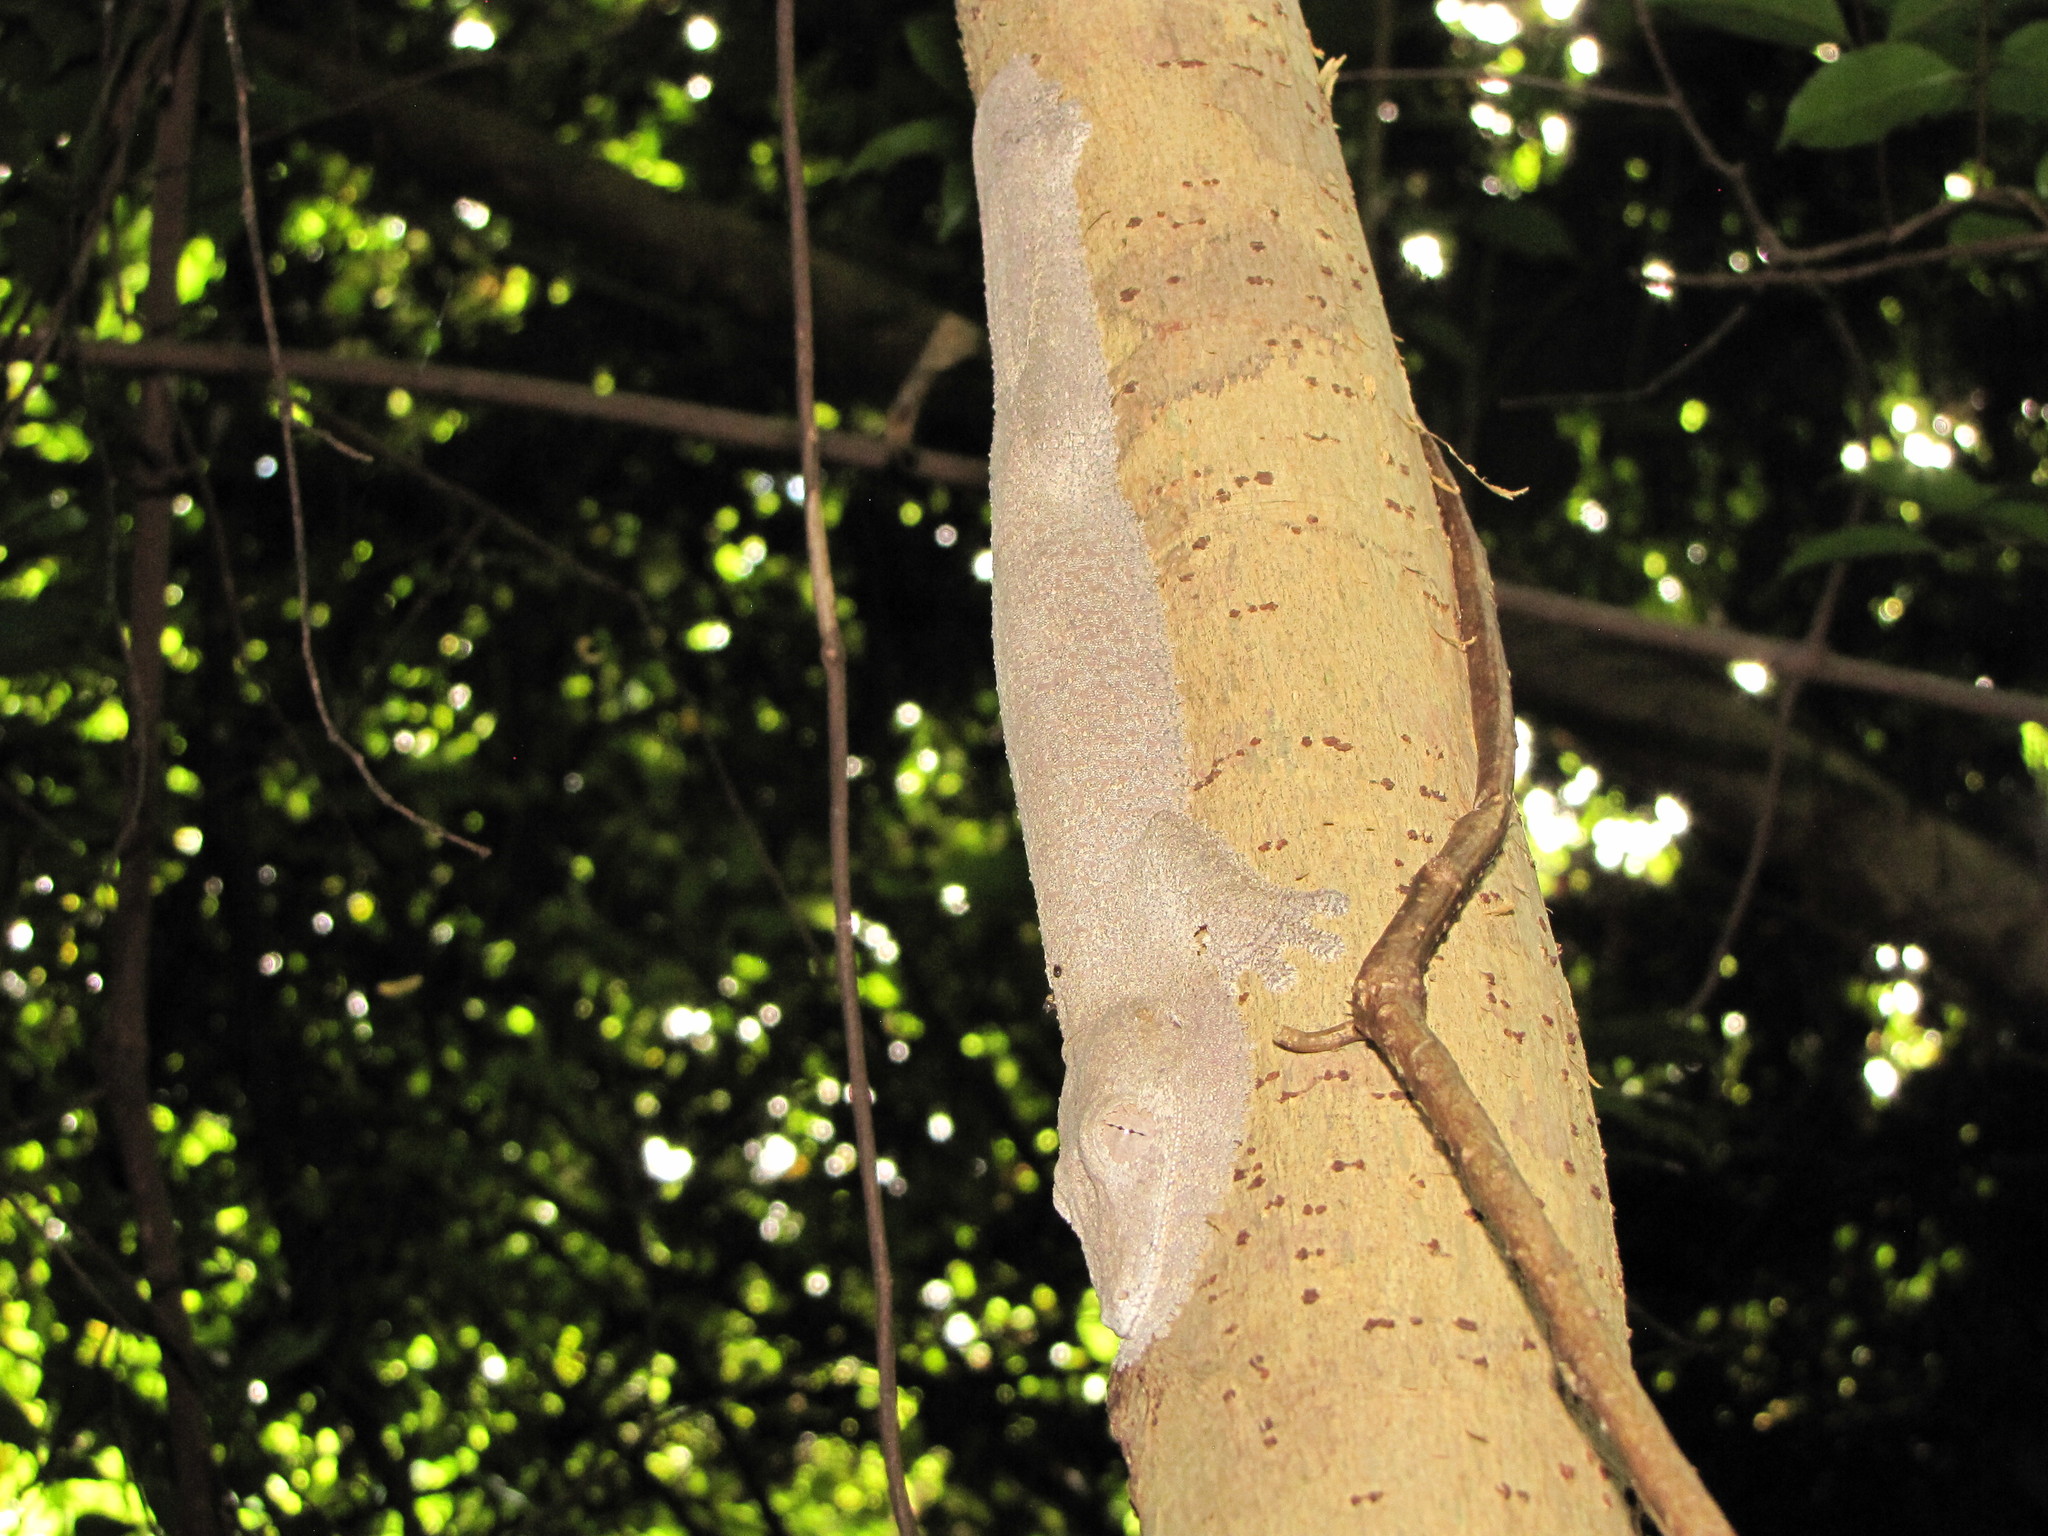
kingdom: Animalia
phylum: Chordata
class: Squamata
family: Gekkonidae
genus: Uroplatus
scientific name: Uroplatus
